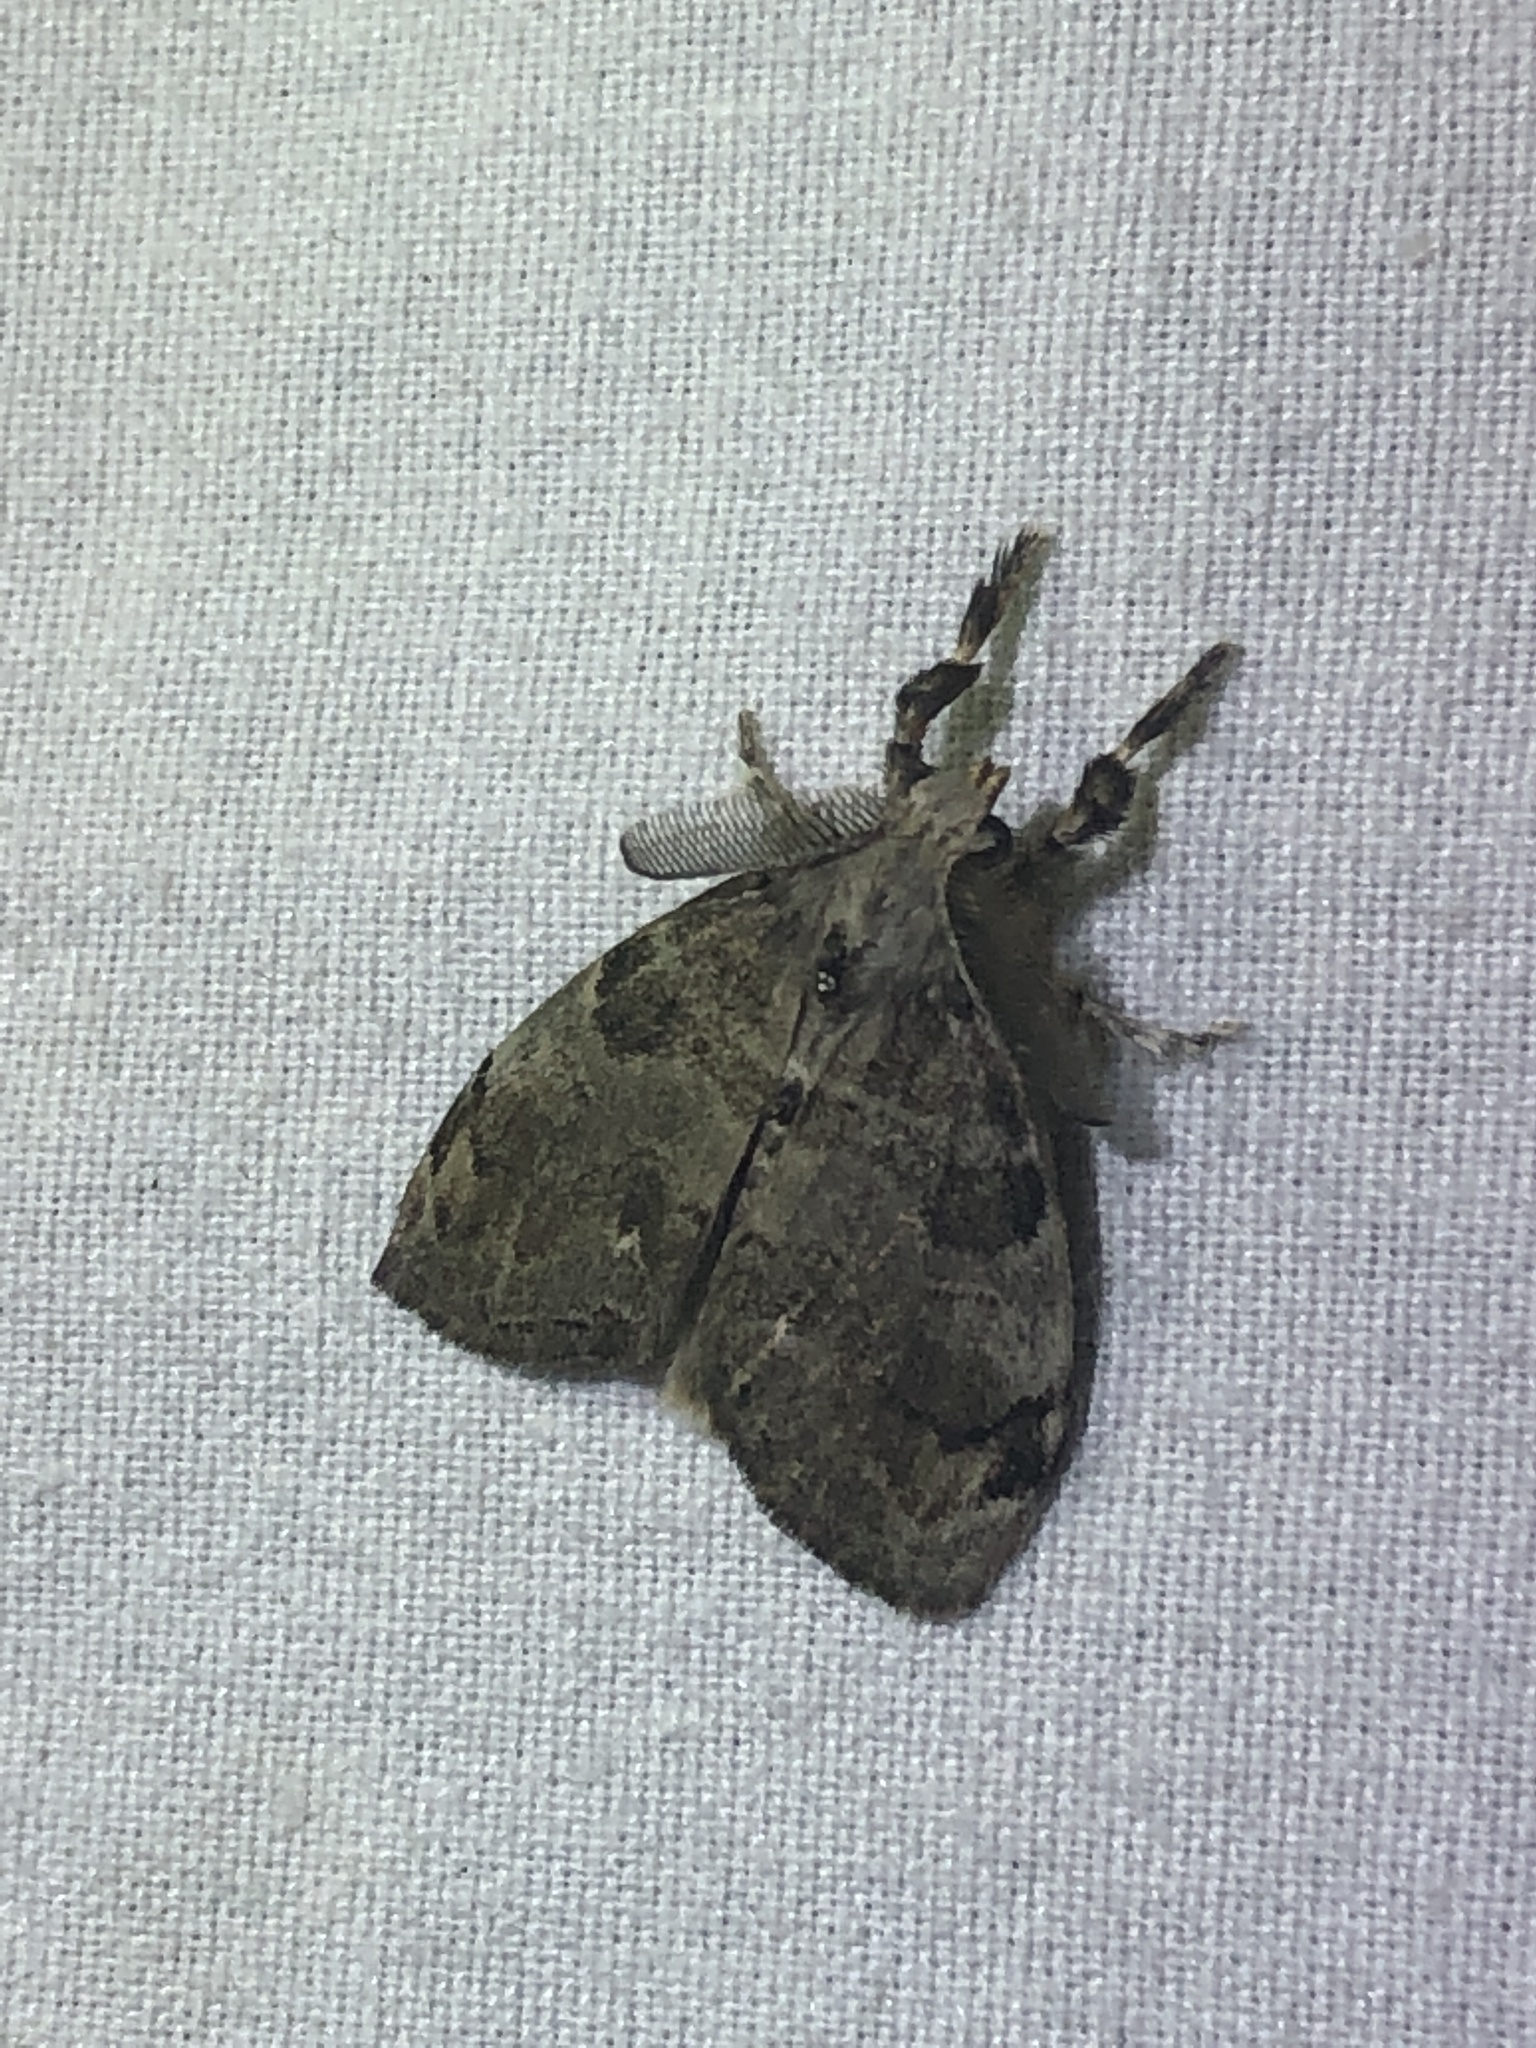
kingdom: Animalia
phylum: Arthropoda
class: Insecta
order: Lepidoptera
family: Erebidae
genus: Orgyia
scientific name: Orgyia leucostigma
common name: White-marked tussock moth
